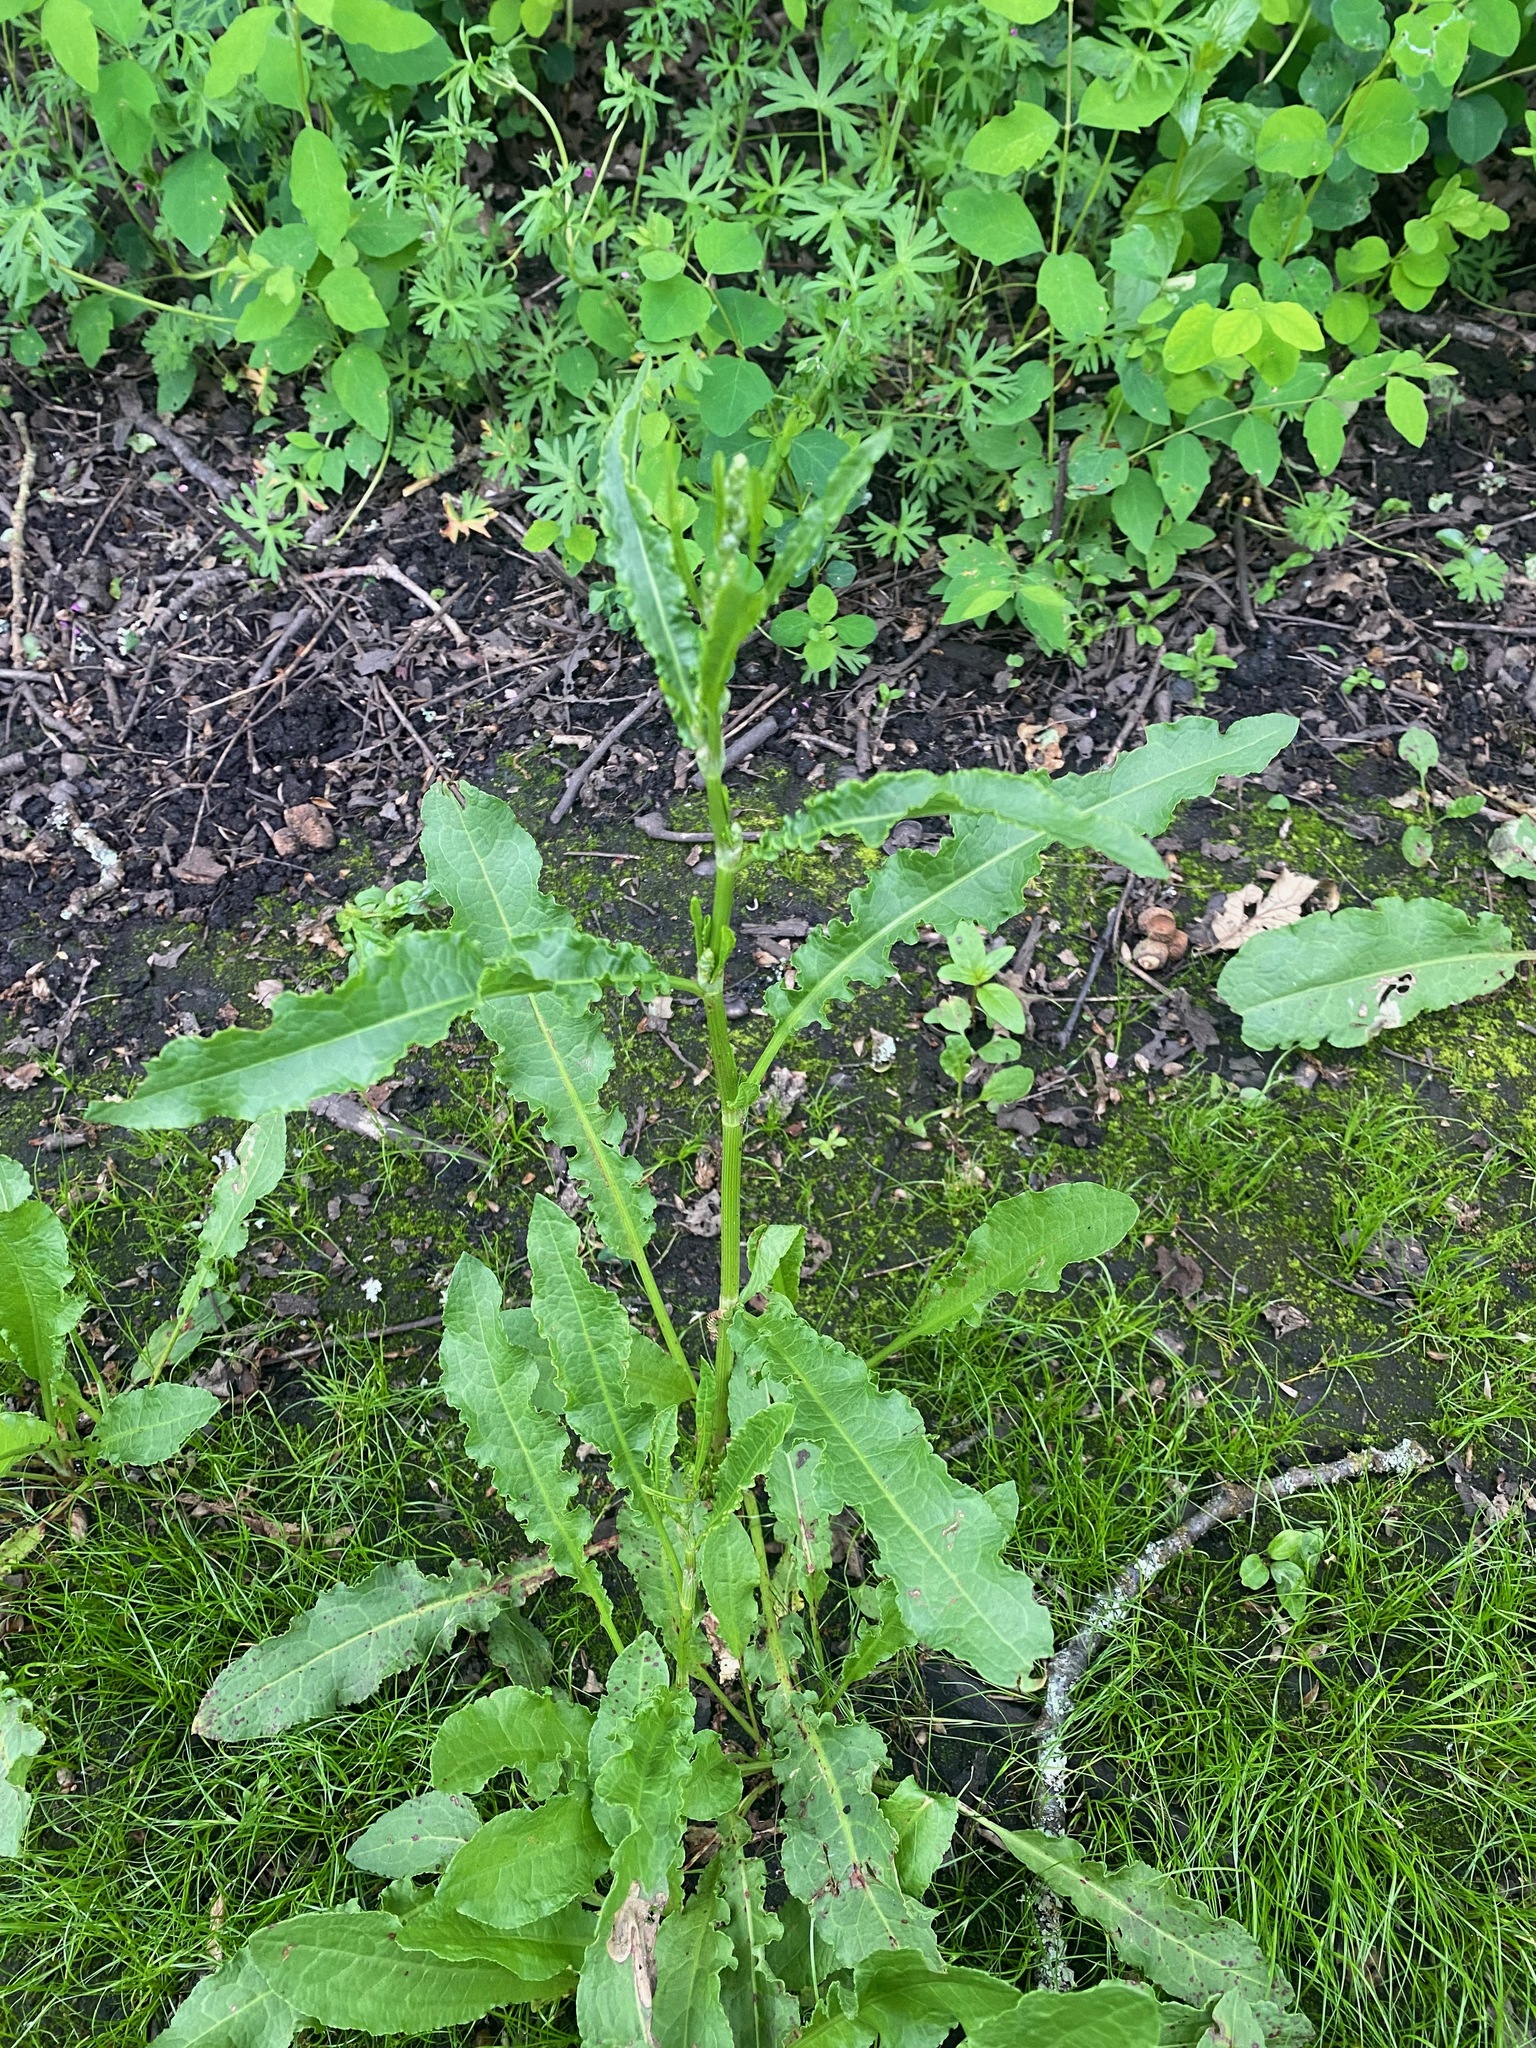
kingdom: Plantae
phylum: Tracheophyta
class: Magnoliopsida
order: Caryophyllales
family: Polygonaceae
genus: Rumex
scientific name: Rumex crispus
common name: Curled dock
